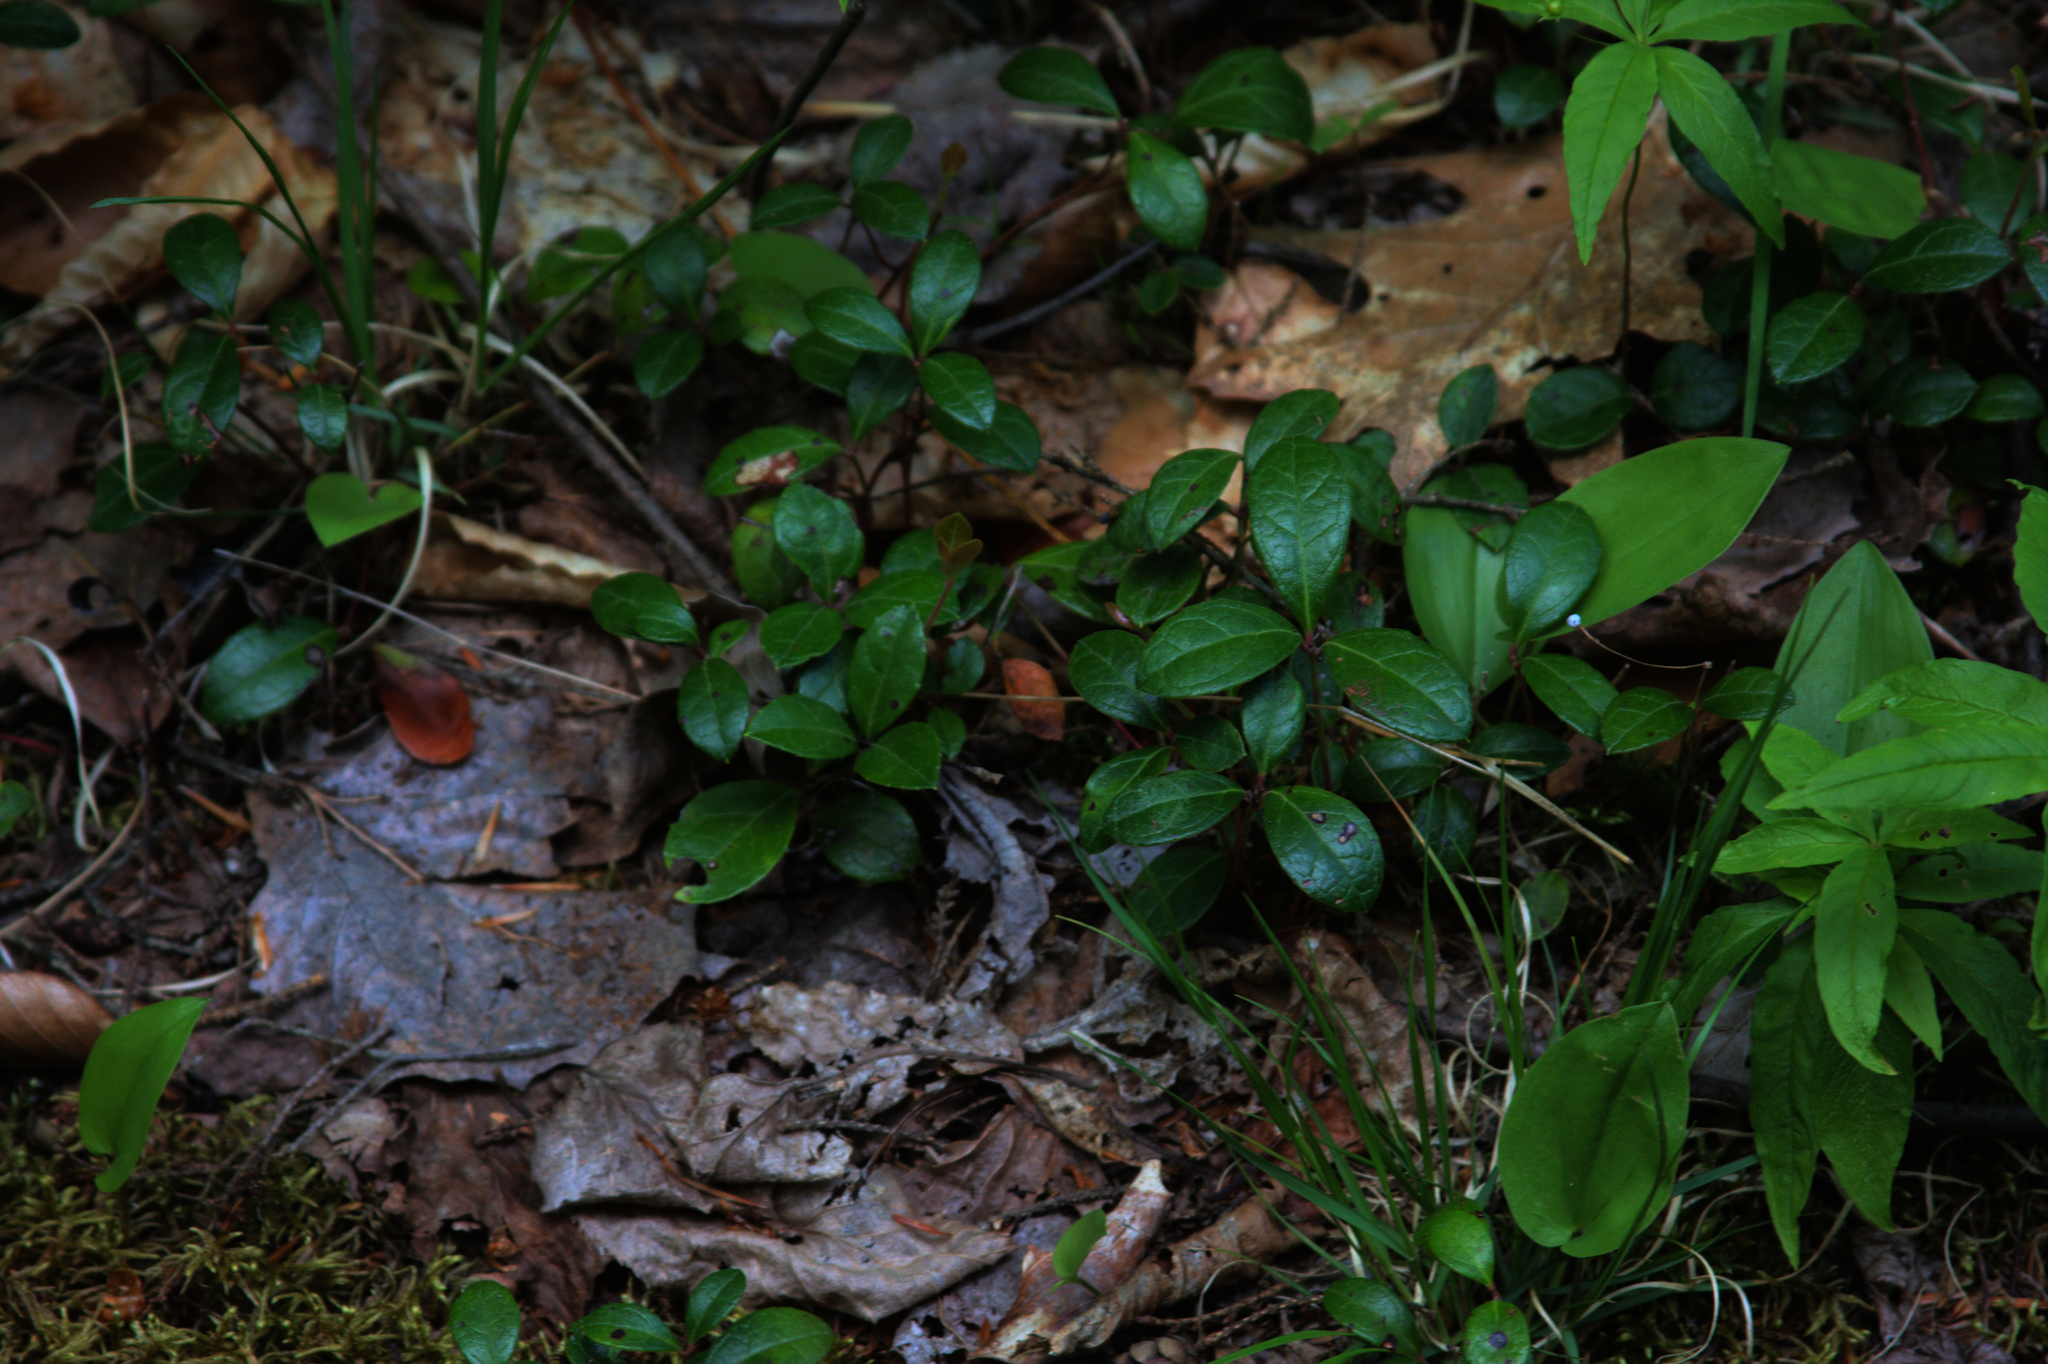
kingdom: Plantae
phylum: Tracheophyta
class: Magnoliopsida
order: Ericales
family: Ericaceae
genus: Gaultheria
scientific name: Gaultheria procumbens
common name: Checkerberry
